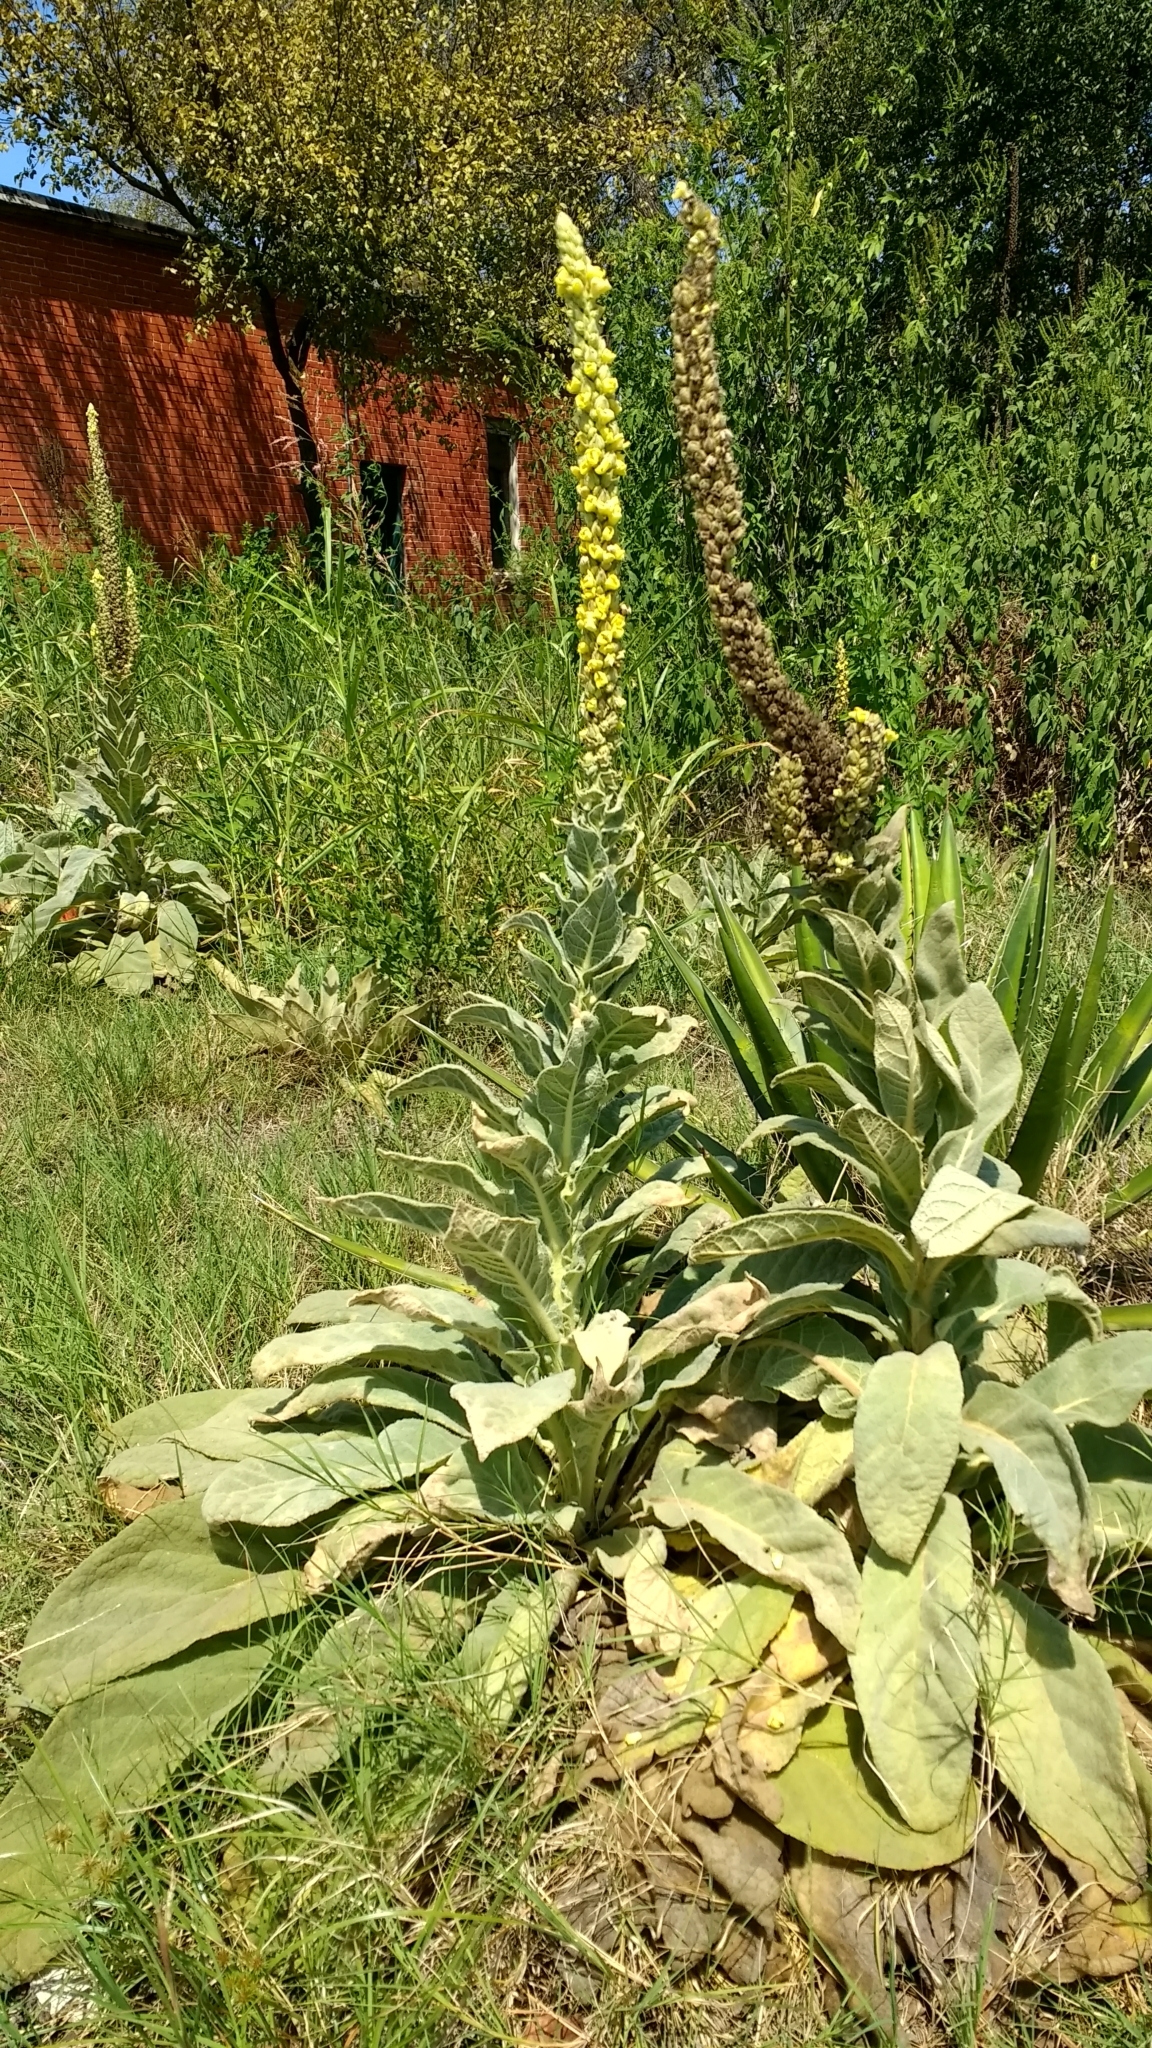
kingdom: Plantae
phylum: Tracheophyta
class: Magnoliopsida
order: Lamiales
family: Scrophulariaceae
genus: Verbascum
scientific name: Verbascum thapsus
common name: Common mullein
